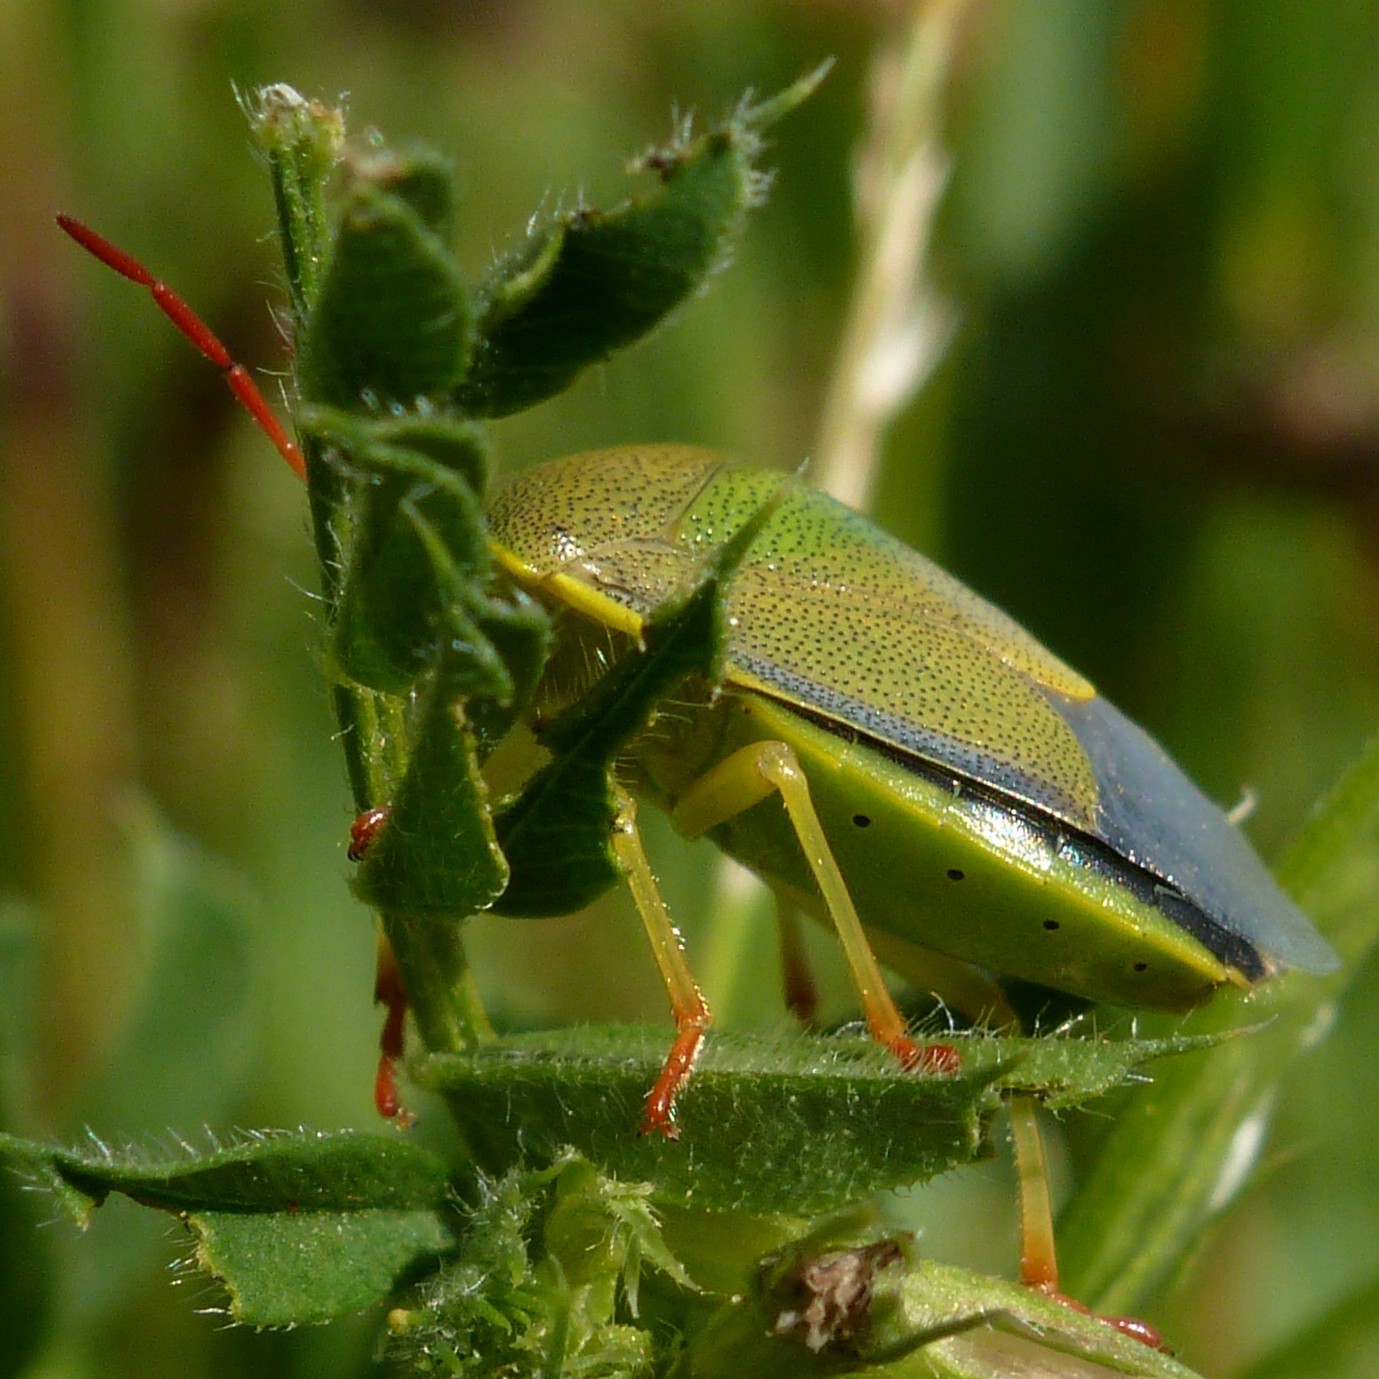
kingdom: Animalia
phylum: Arthropoda
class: Insecta
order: Hemiptera
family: Pentatomidae
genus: Piezodorus
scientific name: Piezodorus lituratus
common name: Stink bug
